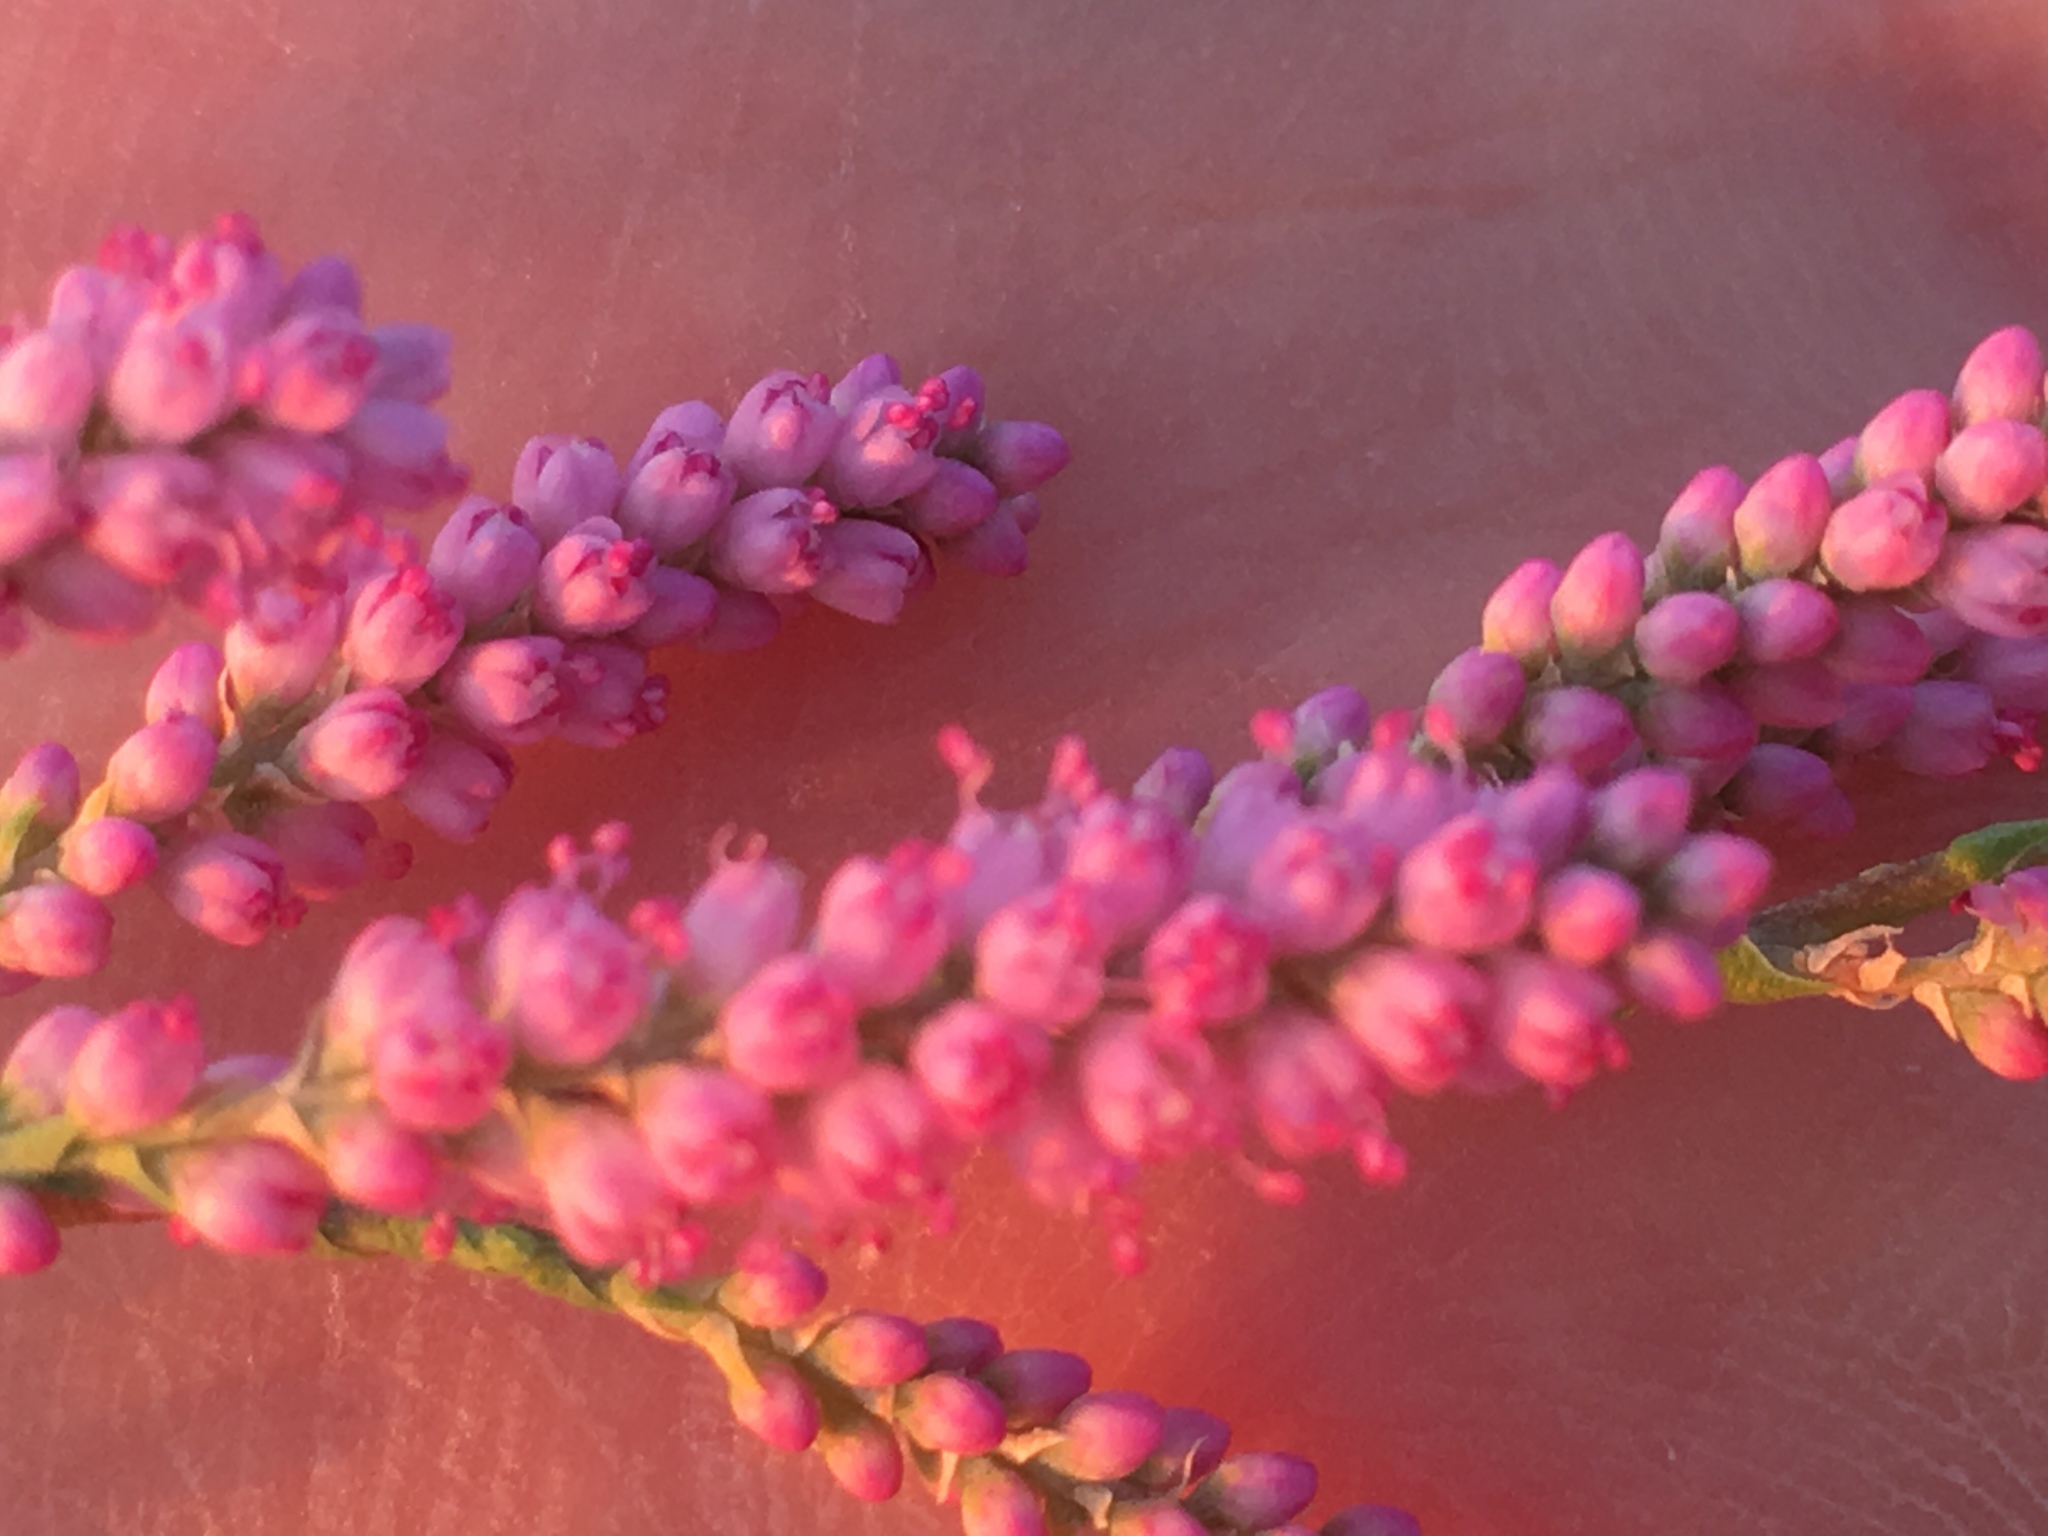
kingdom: Plantae
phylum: Tracheophyta
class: Magnoliopsida
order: Caryophyllales
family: Tamaricaceae
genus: Tamarix
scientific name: Tamarix ramosissima
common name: Pink tamarisk
